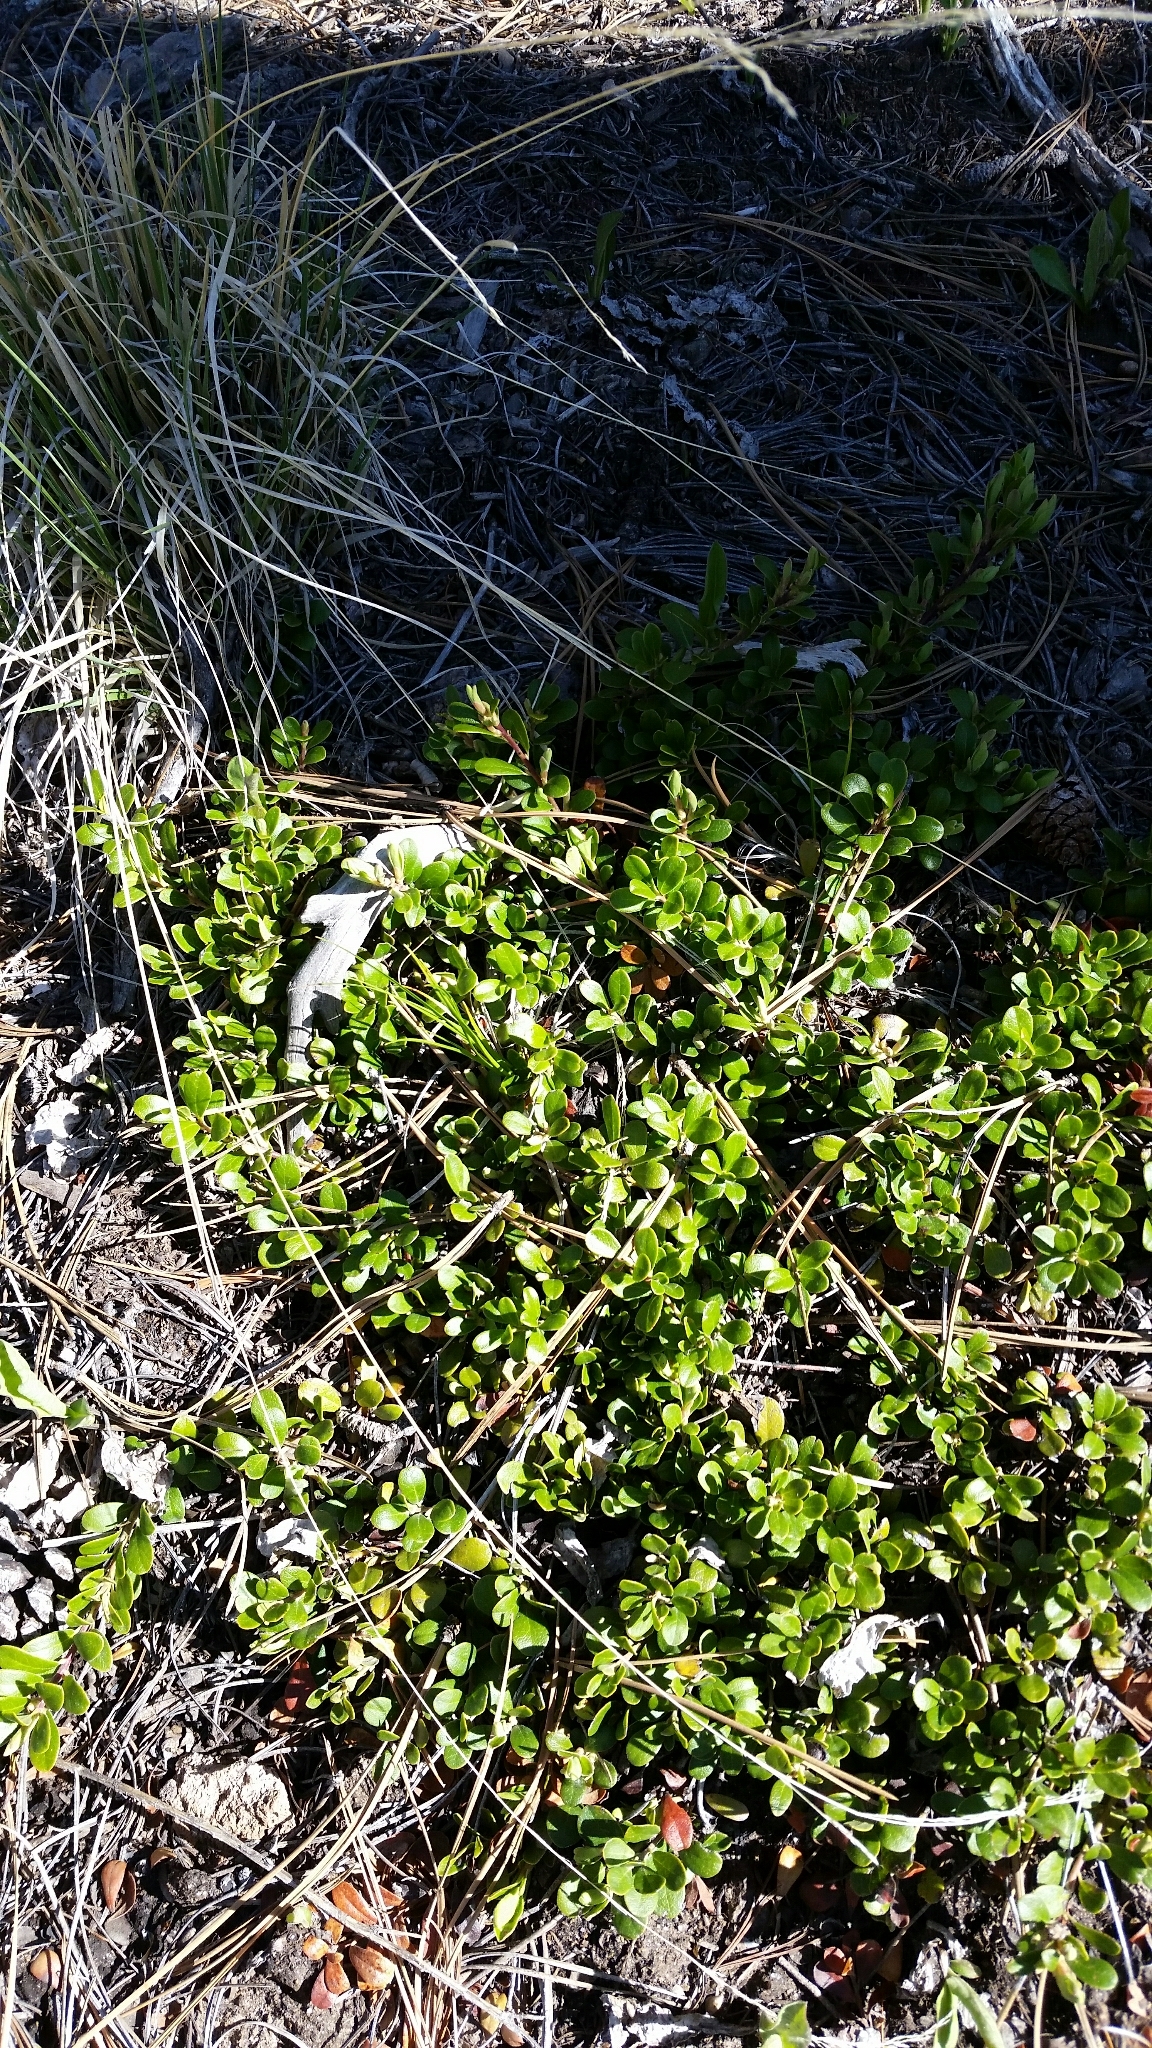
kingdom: Plantae
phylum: Tracheophyta
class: Magnoliopsida
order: Ericales
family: Ericaceae
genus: Arctostaphylos
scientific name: Arctostaphylos uva-ursi
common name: Bearberry
